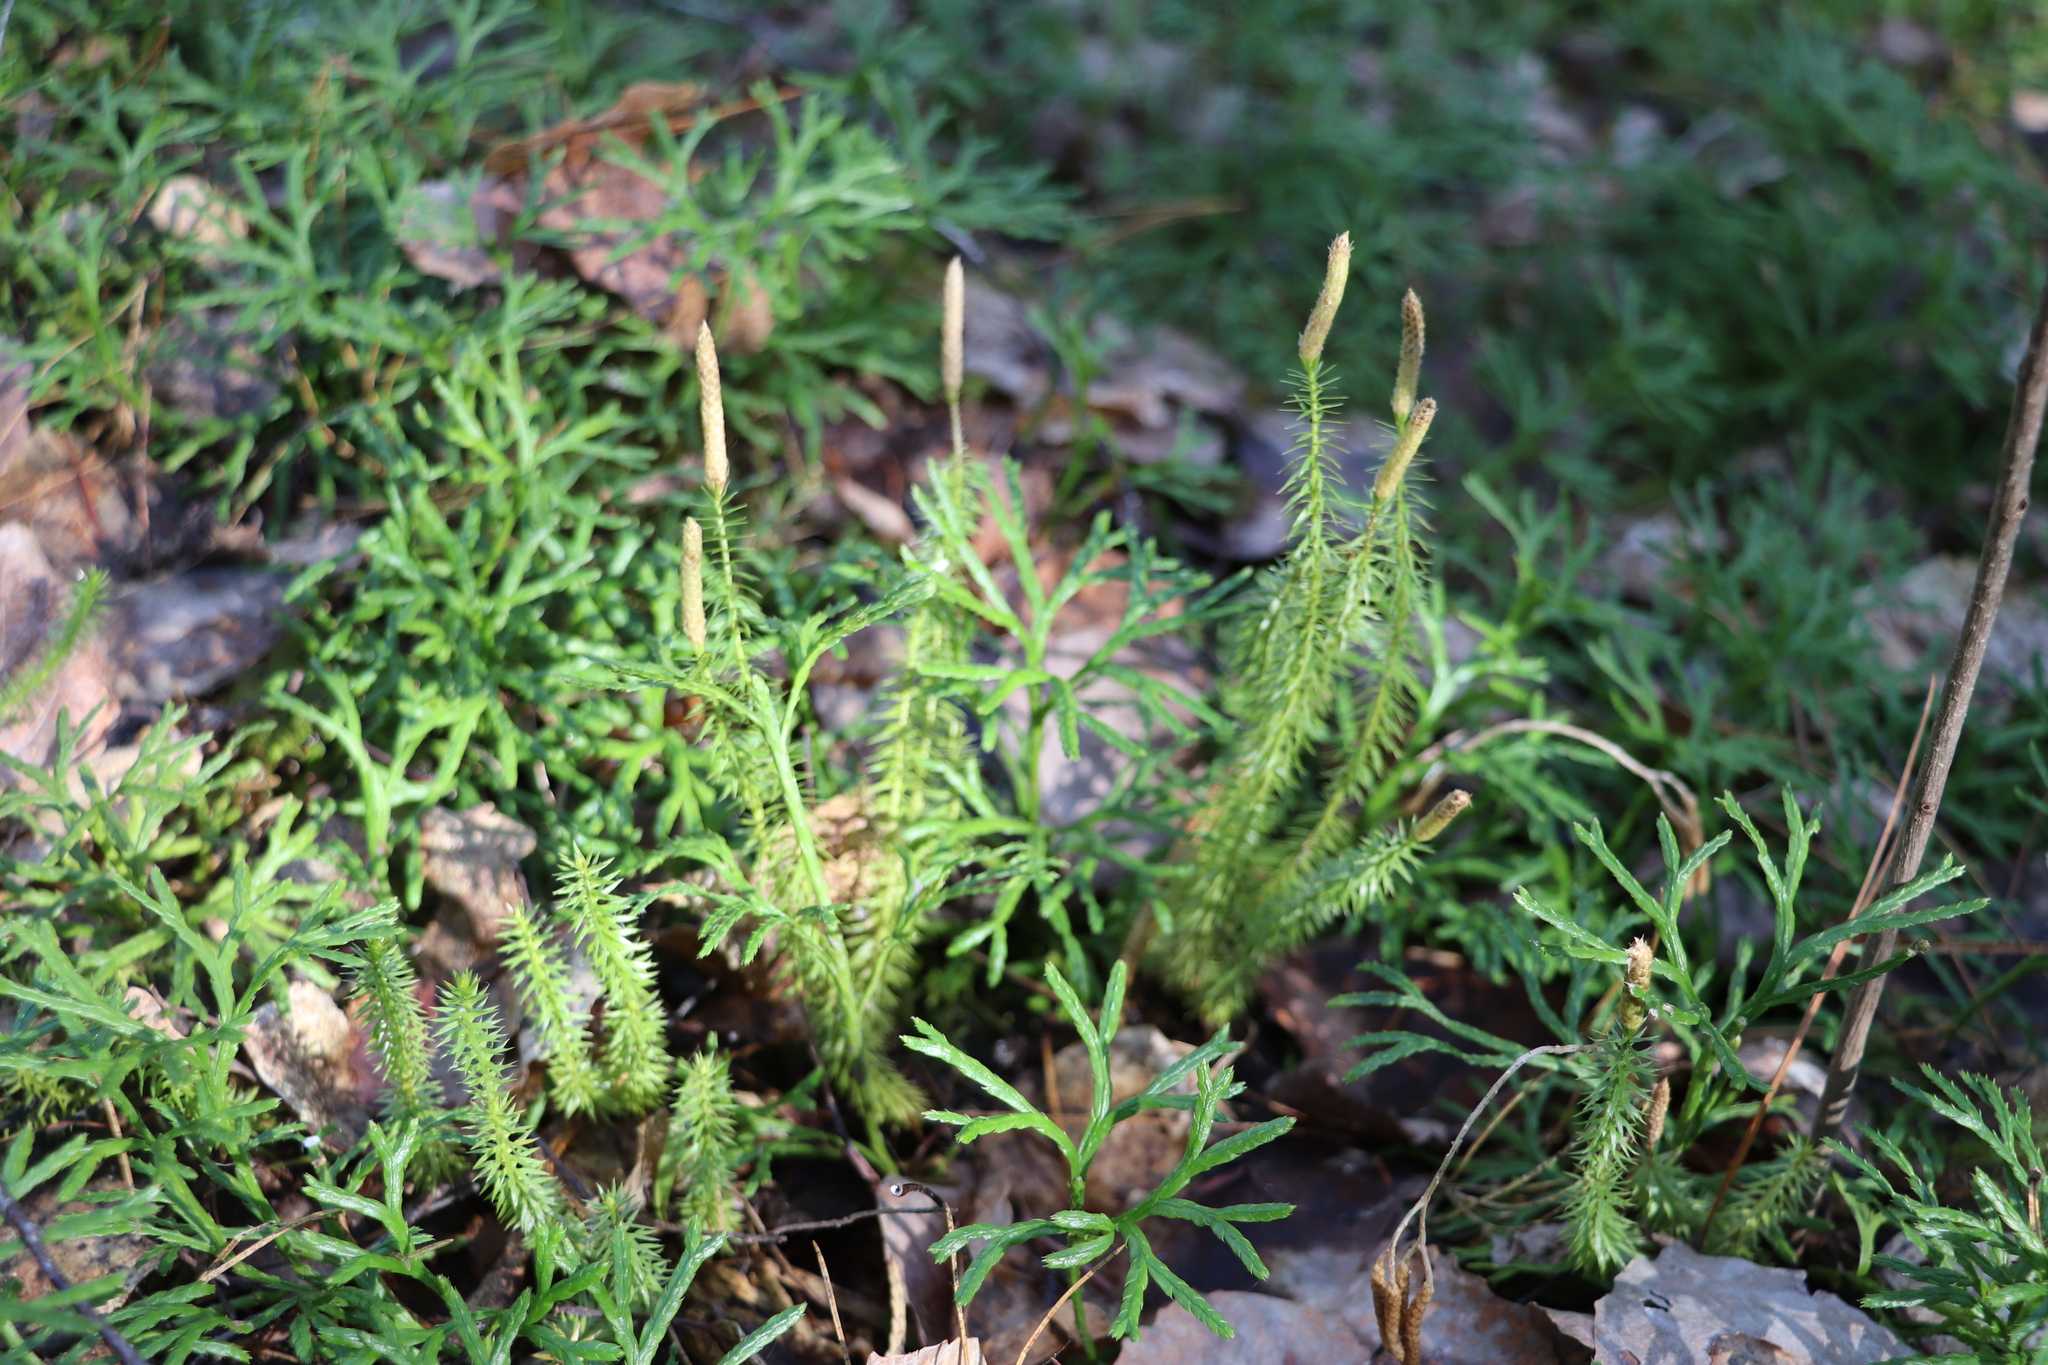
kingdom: Plantae
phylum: Tracheophyta
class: Lycopodiopsida
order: Lycopodiales
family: Lycopodiaceae
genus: Spinulum
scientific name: Spinulum annotinum
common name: Interrupted club-moss
